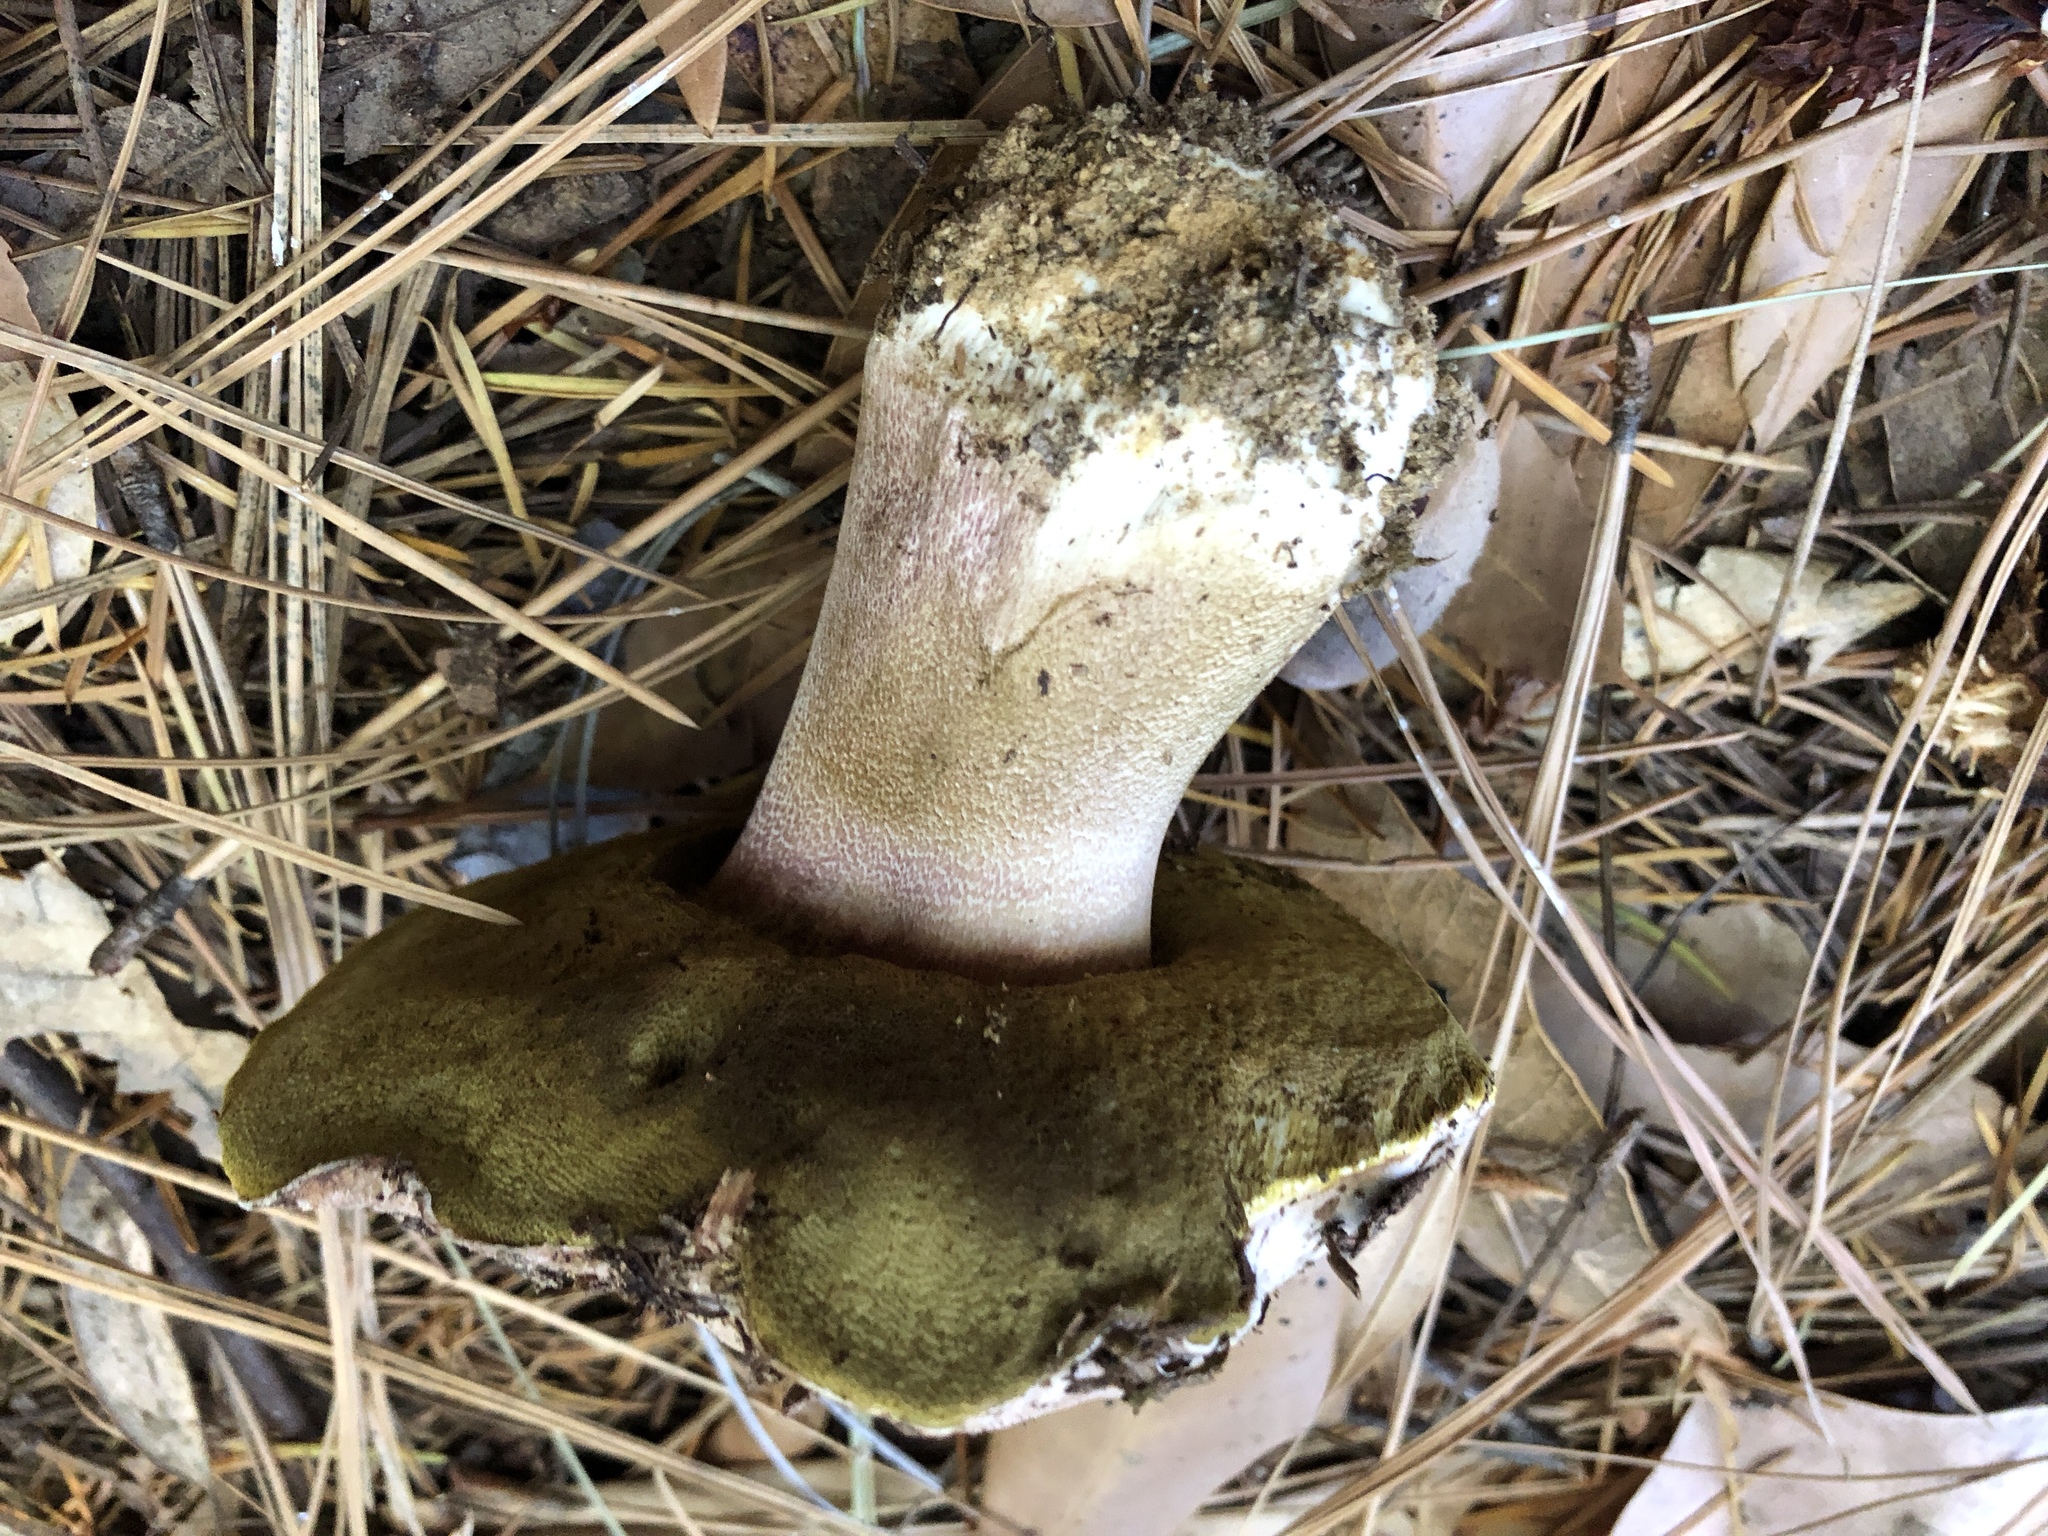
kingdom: Fungi
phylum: Basidiomycota
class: Agaricomycetes
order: Boletales
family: Boletaceae
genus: Boletus
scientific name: Boletus regineus
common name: Queen bolete
